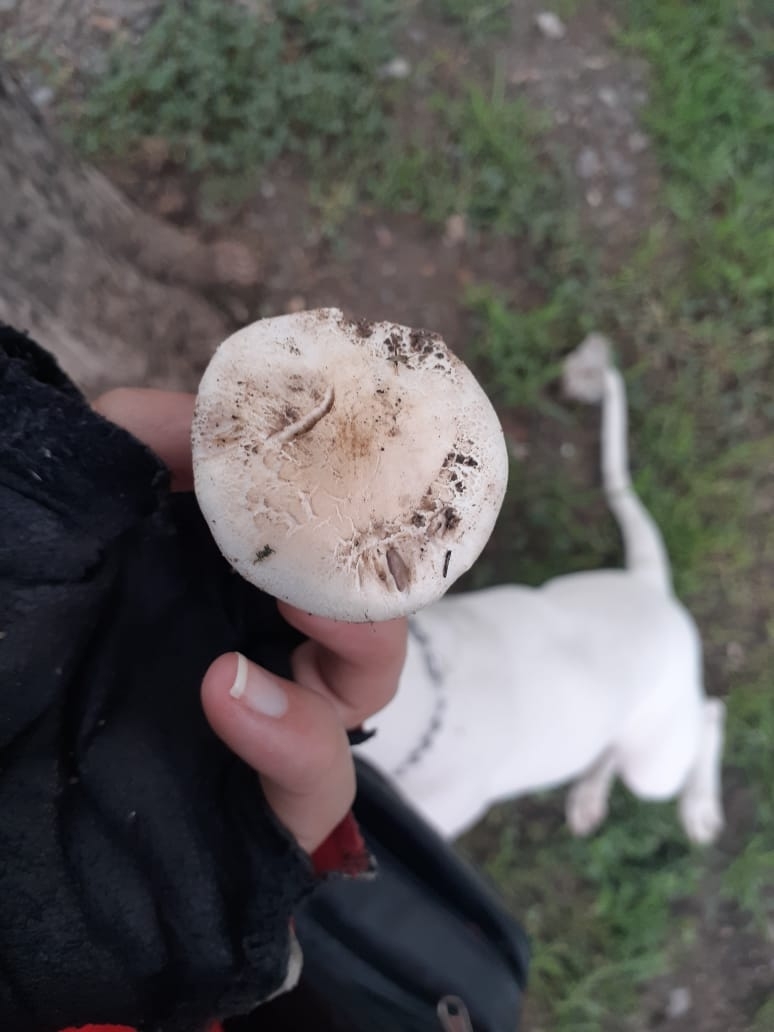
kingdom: Fungi
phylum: Basidiomycota
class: Agaricomycetes
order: Agaricales
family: Agaricaceae
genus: Agaricus
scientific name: Agaricus campestris
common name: Field mushroom
